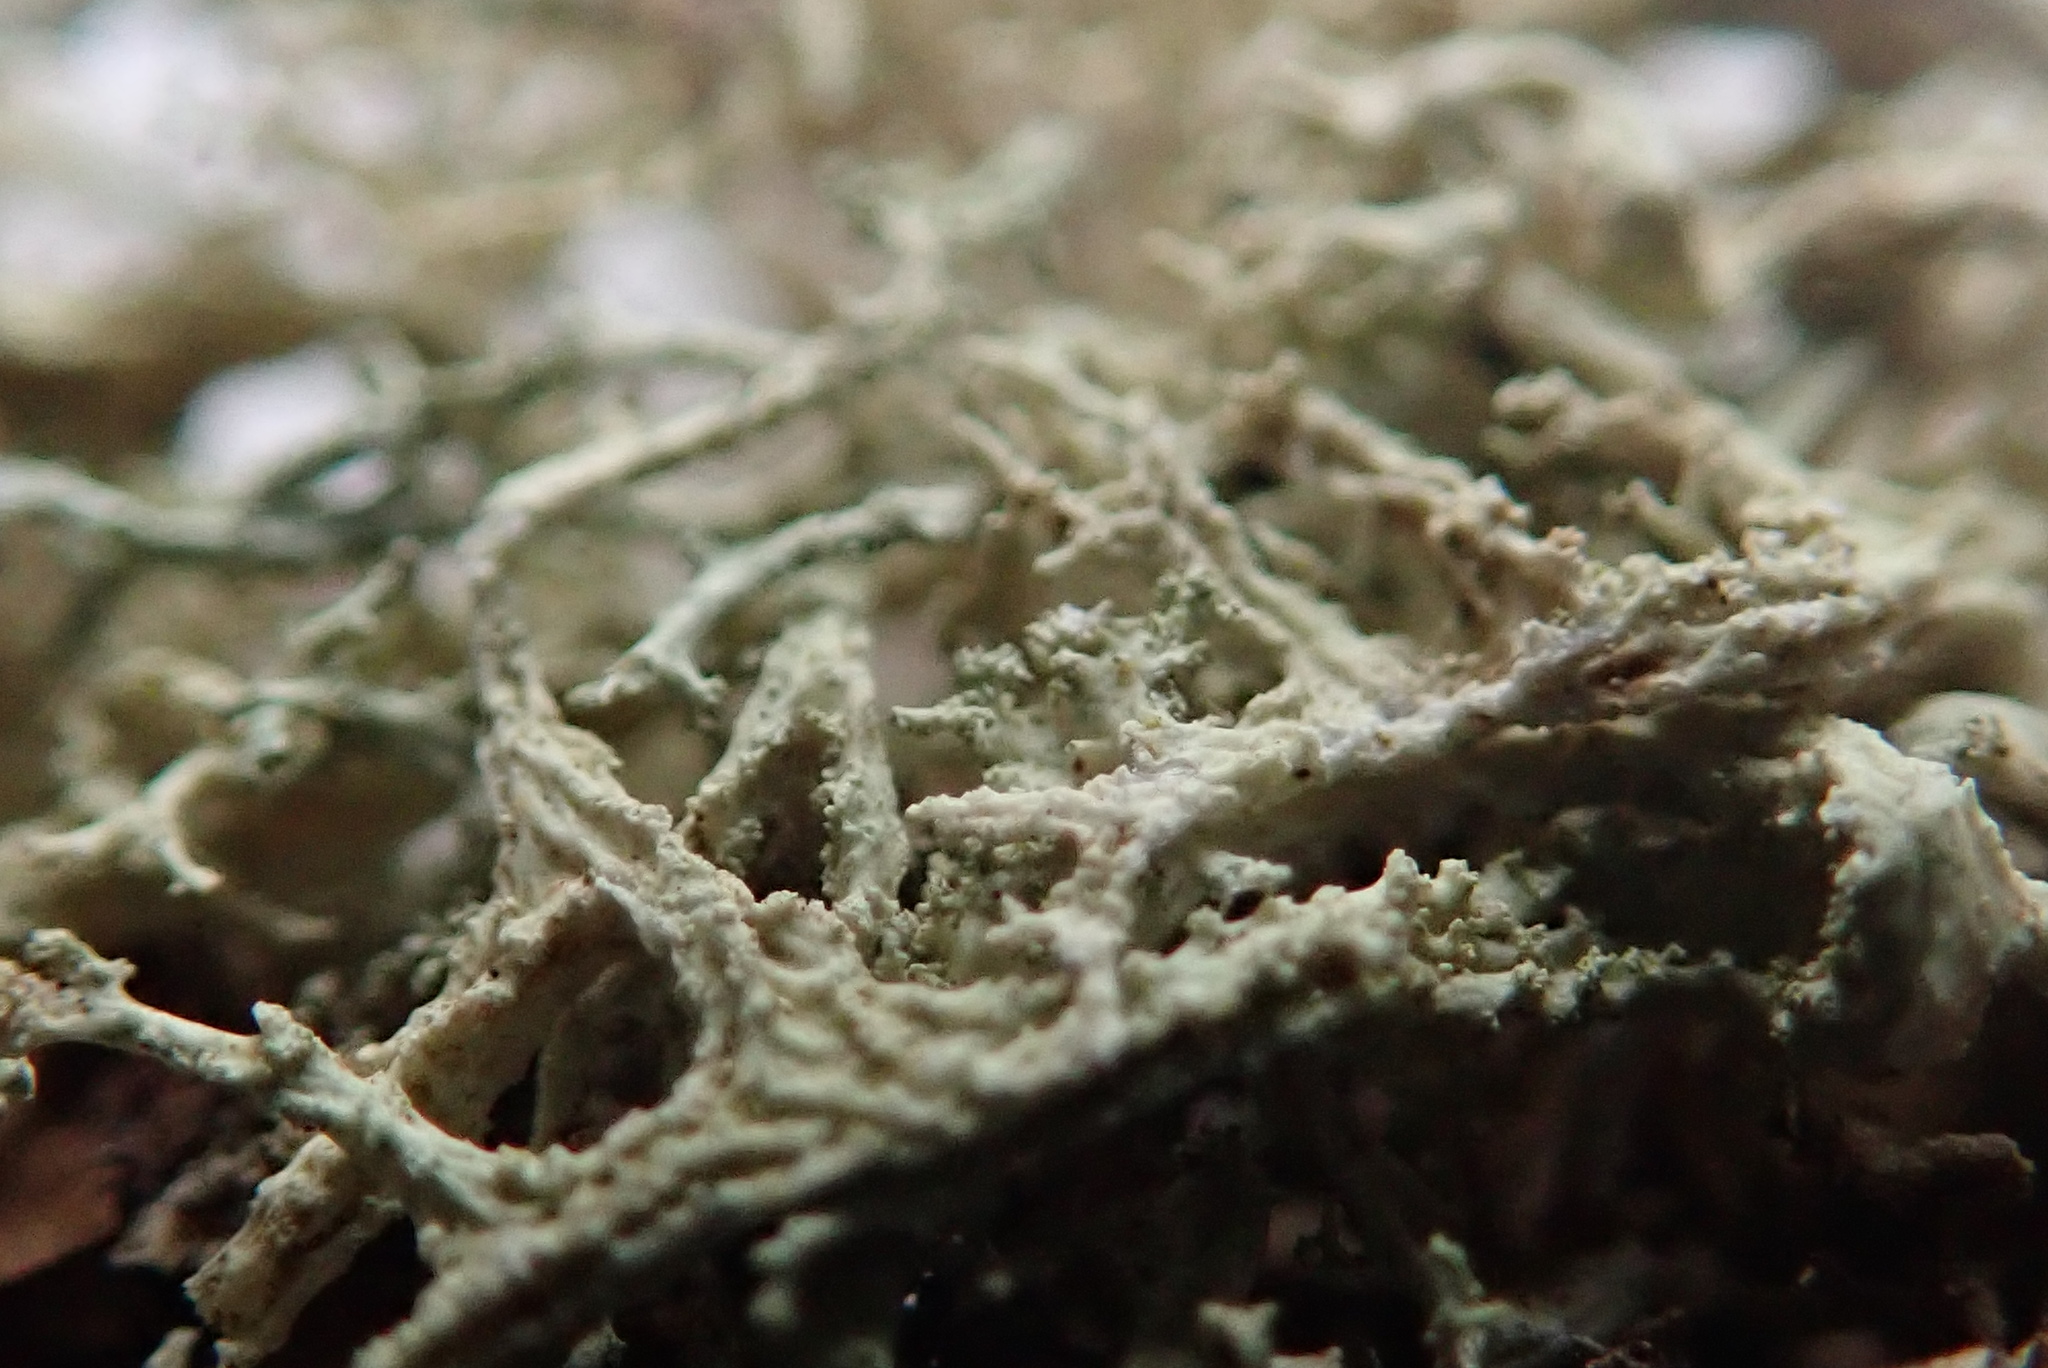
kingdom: Fungi
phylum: Ascomycota
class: Lecanoromycetes
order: Lecanorales
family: Parmeliaceae
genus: Evernia
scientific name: Evernia mesomorpha
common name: Boreal oak moss lichen
